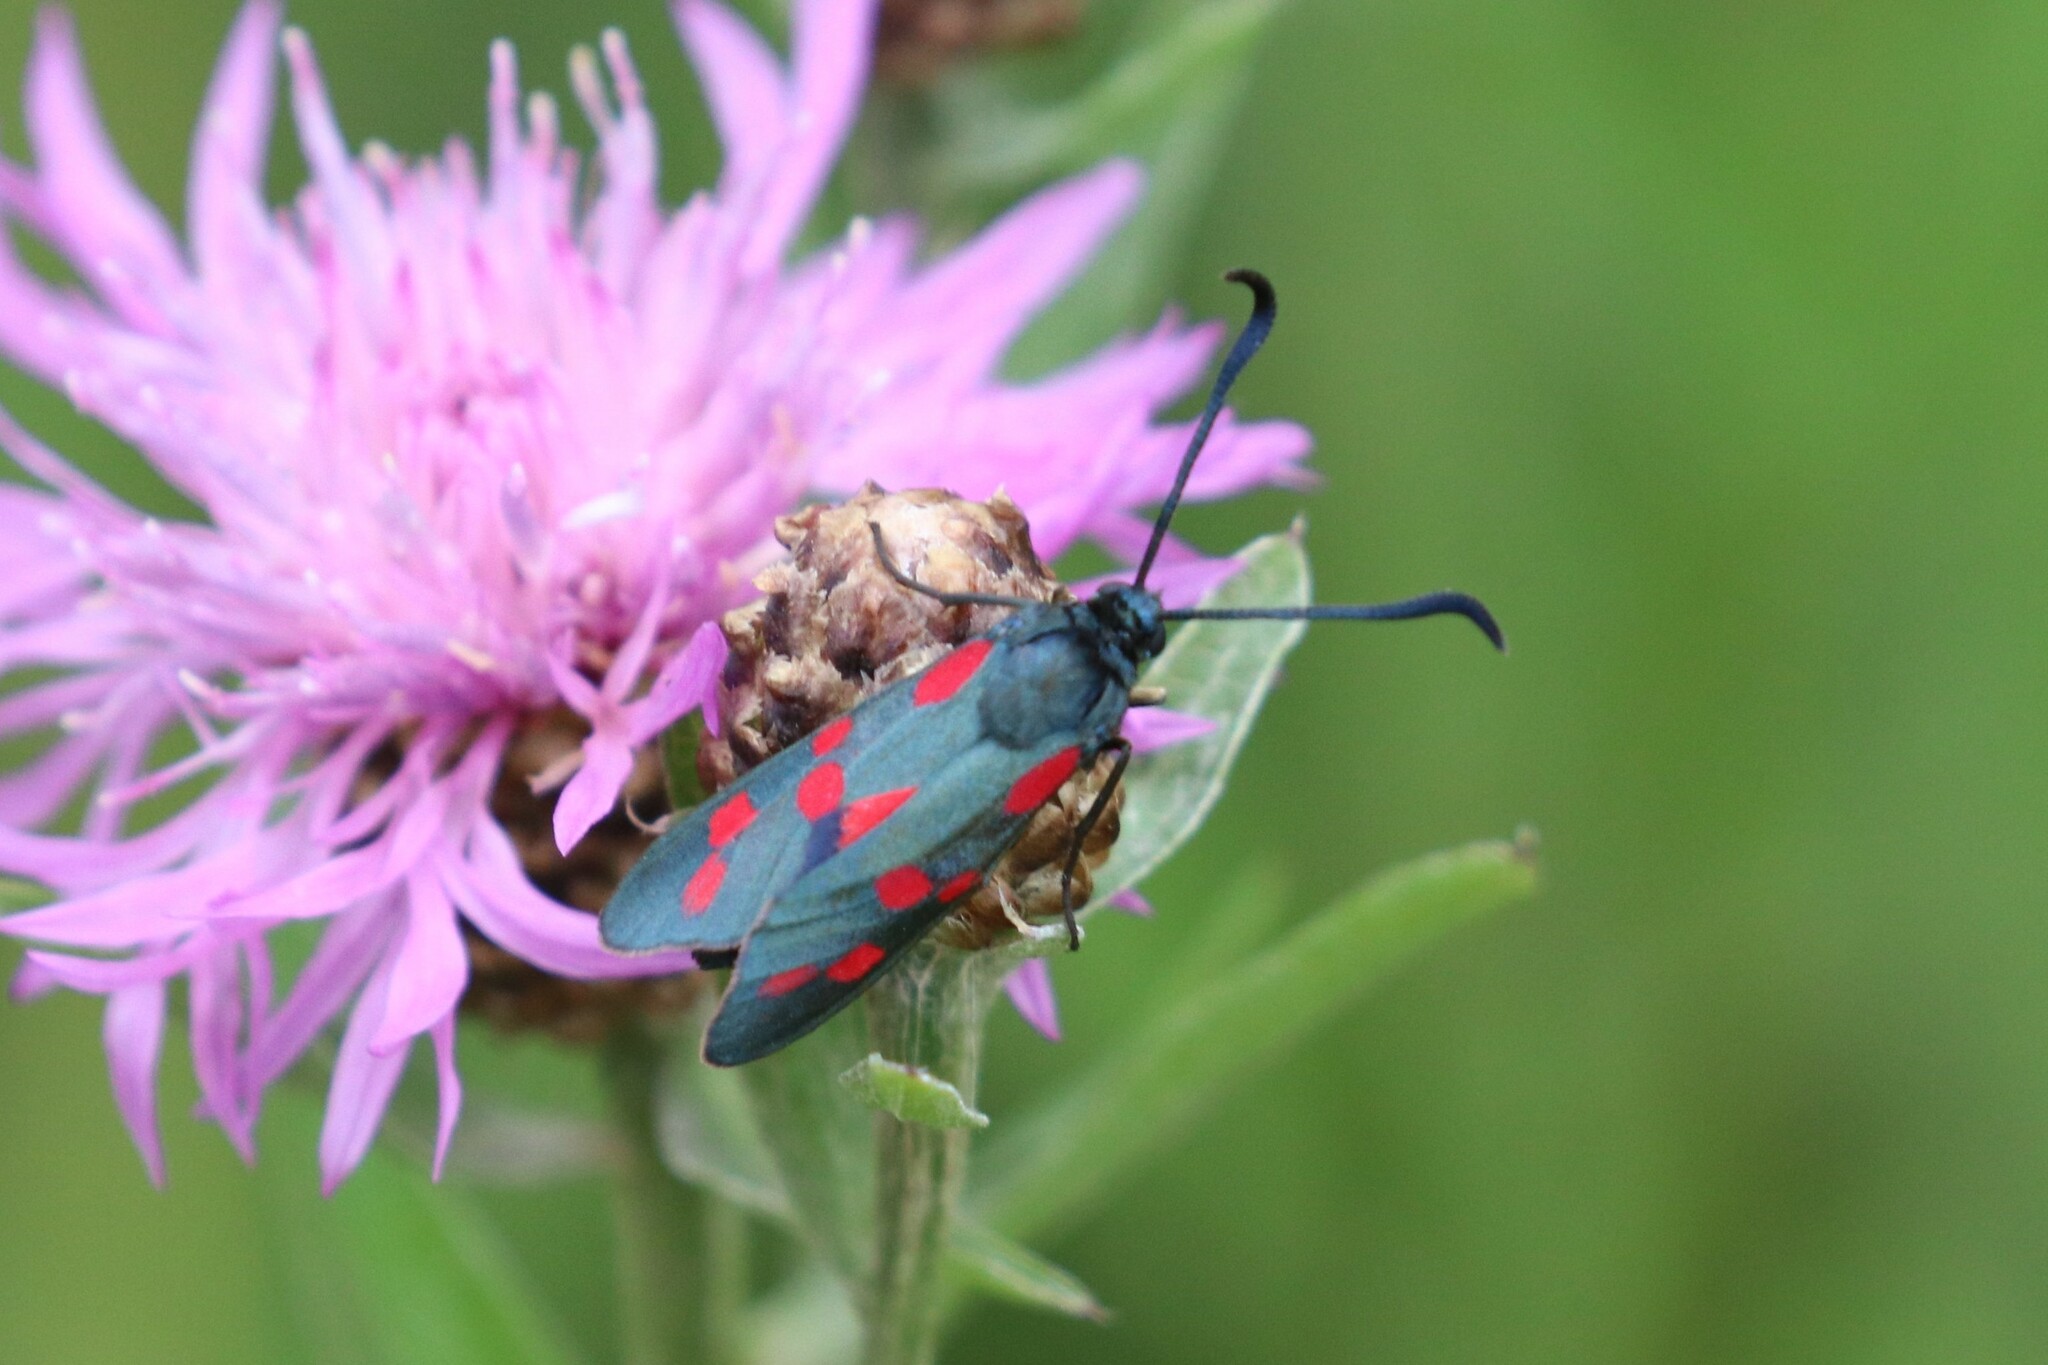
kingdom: Animalia
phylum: Arthropoda
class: Insecta
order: Lepidoptera
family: Zygaenidae
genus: Zygaena
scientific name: Zygaena filipendulae
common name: Six-spot burnet
